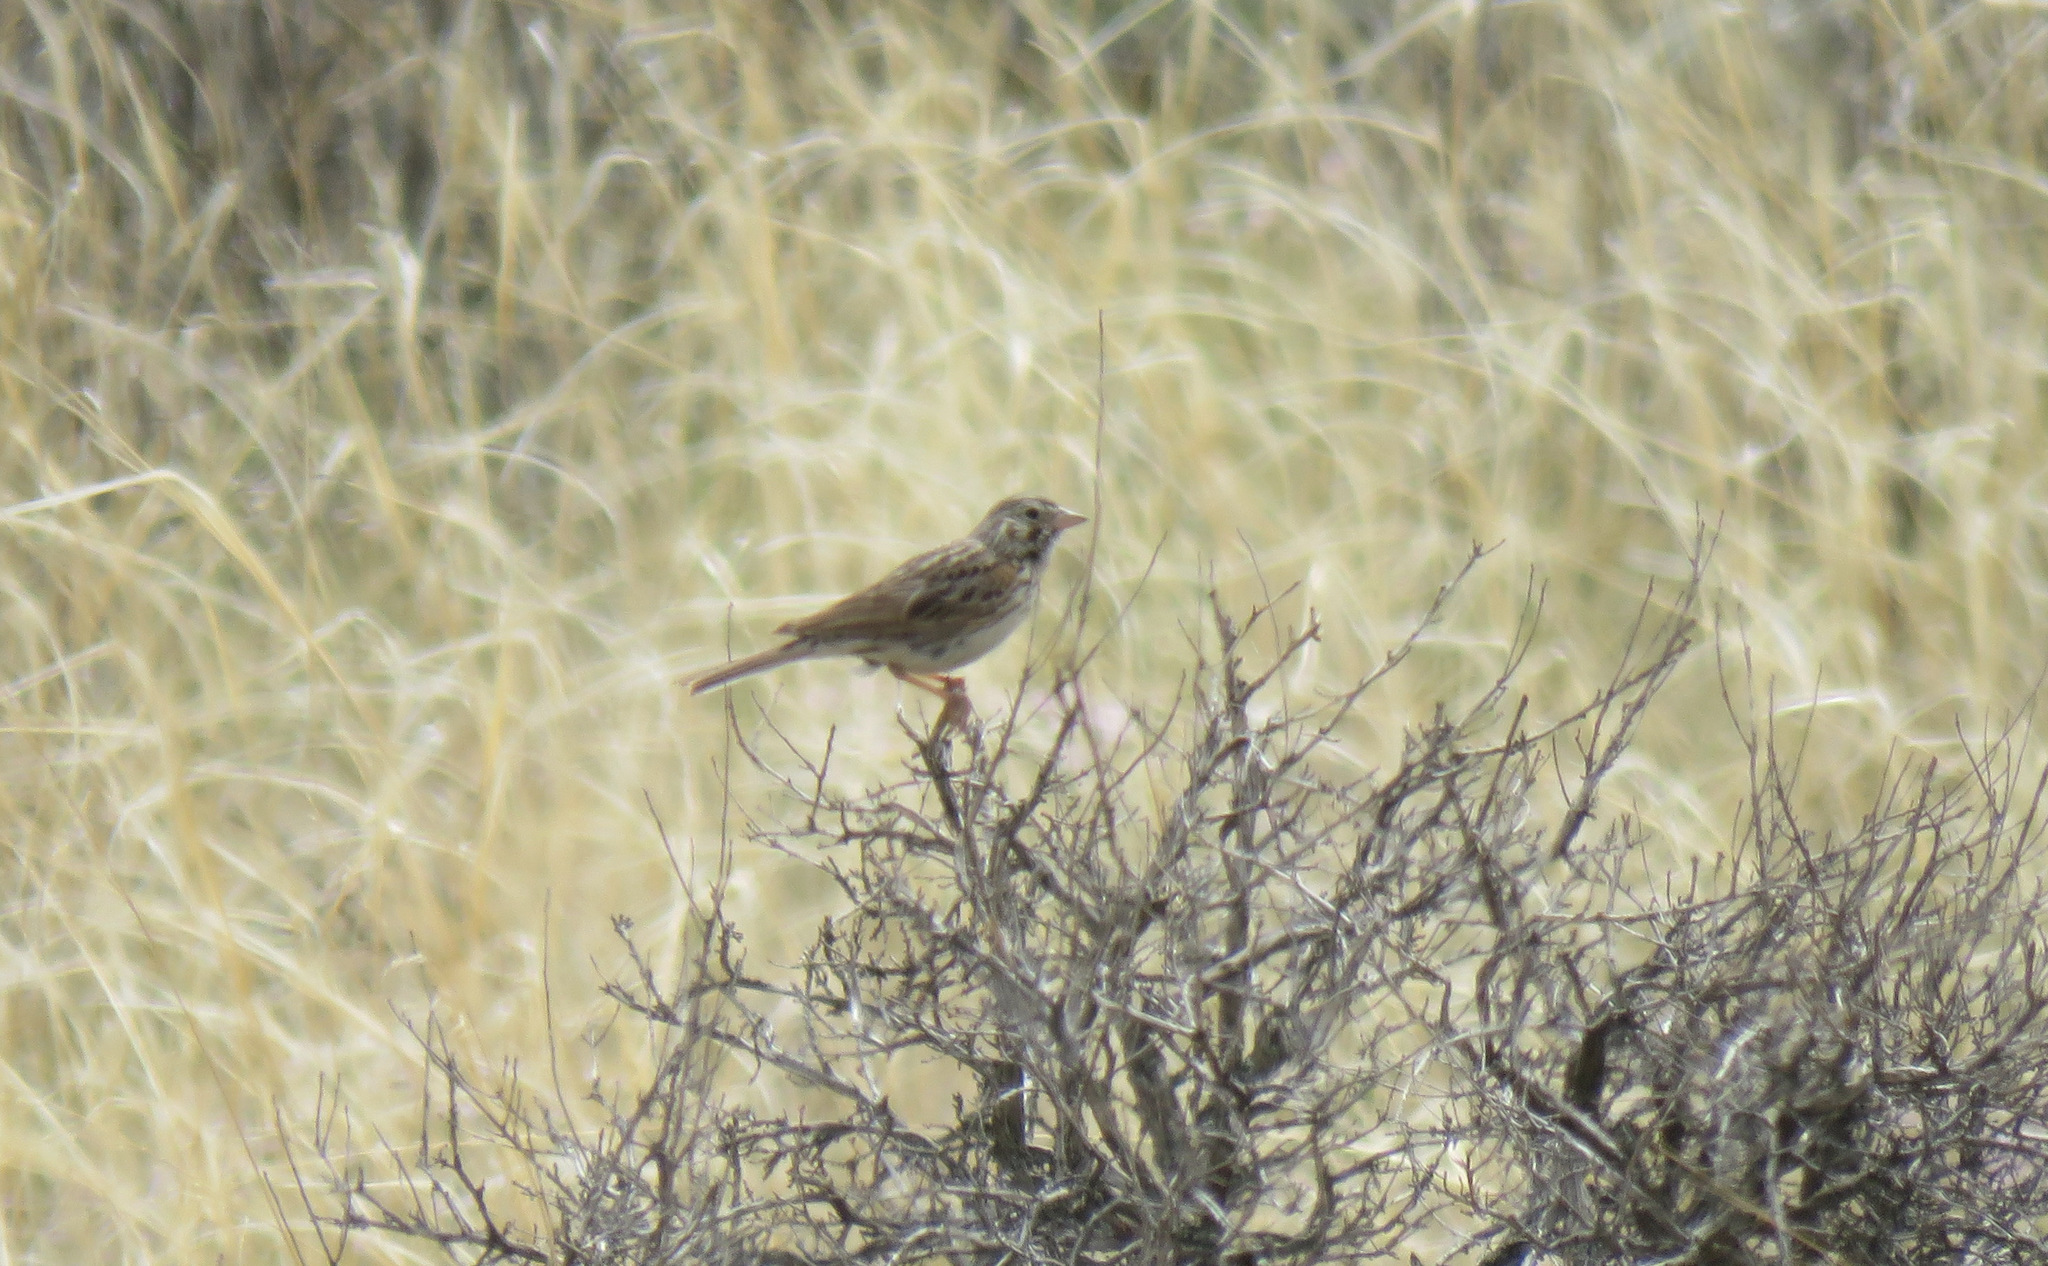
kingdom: Animalia
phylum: Chordata
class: Aves
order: Passeriformes
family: Passerellidae
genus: Pooecetes
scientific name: Pooecetes gramineus
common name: Vesper sparrow
